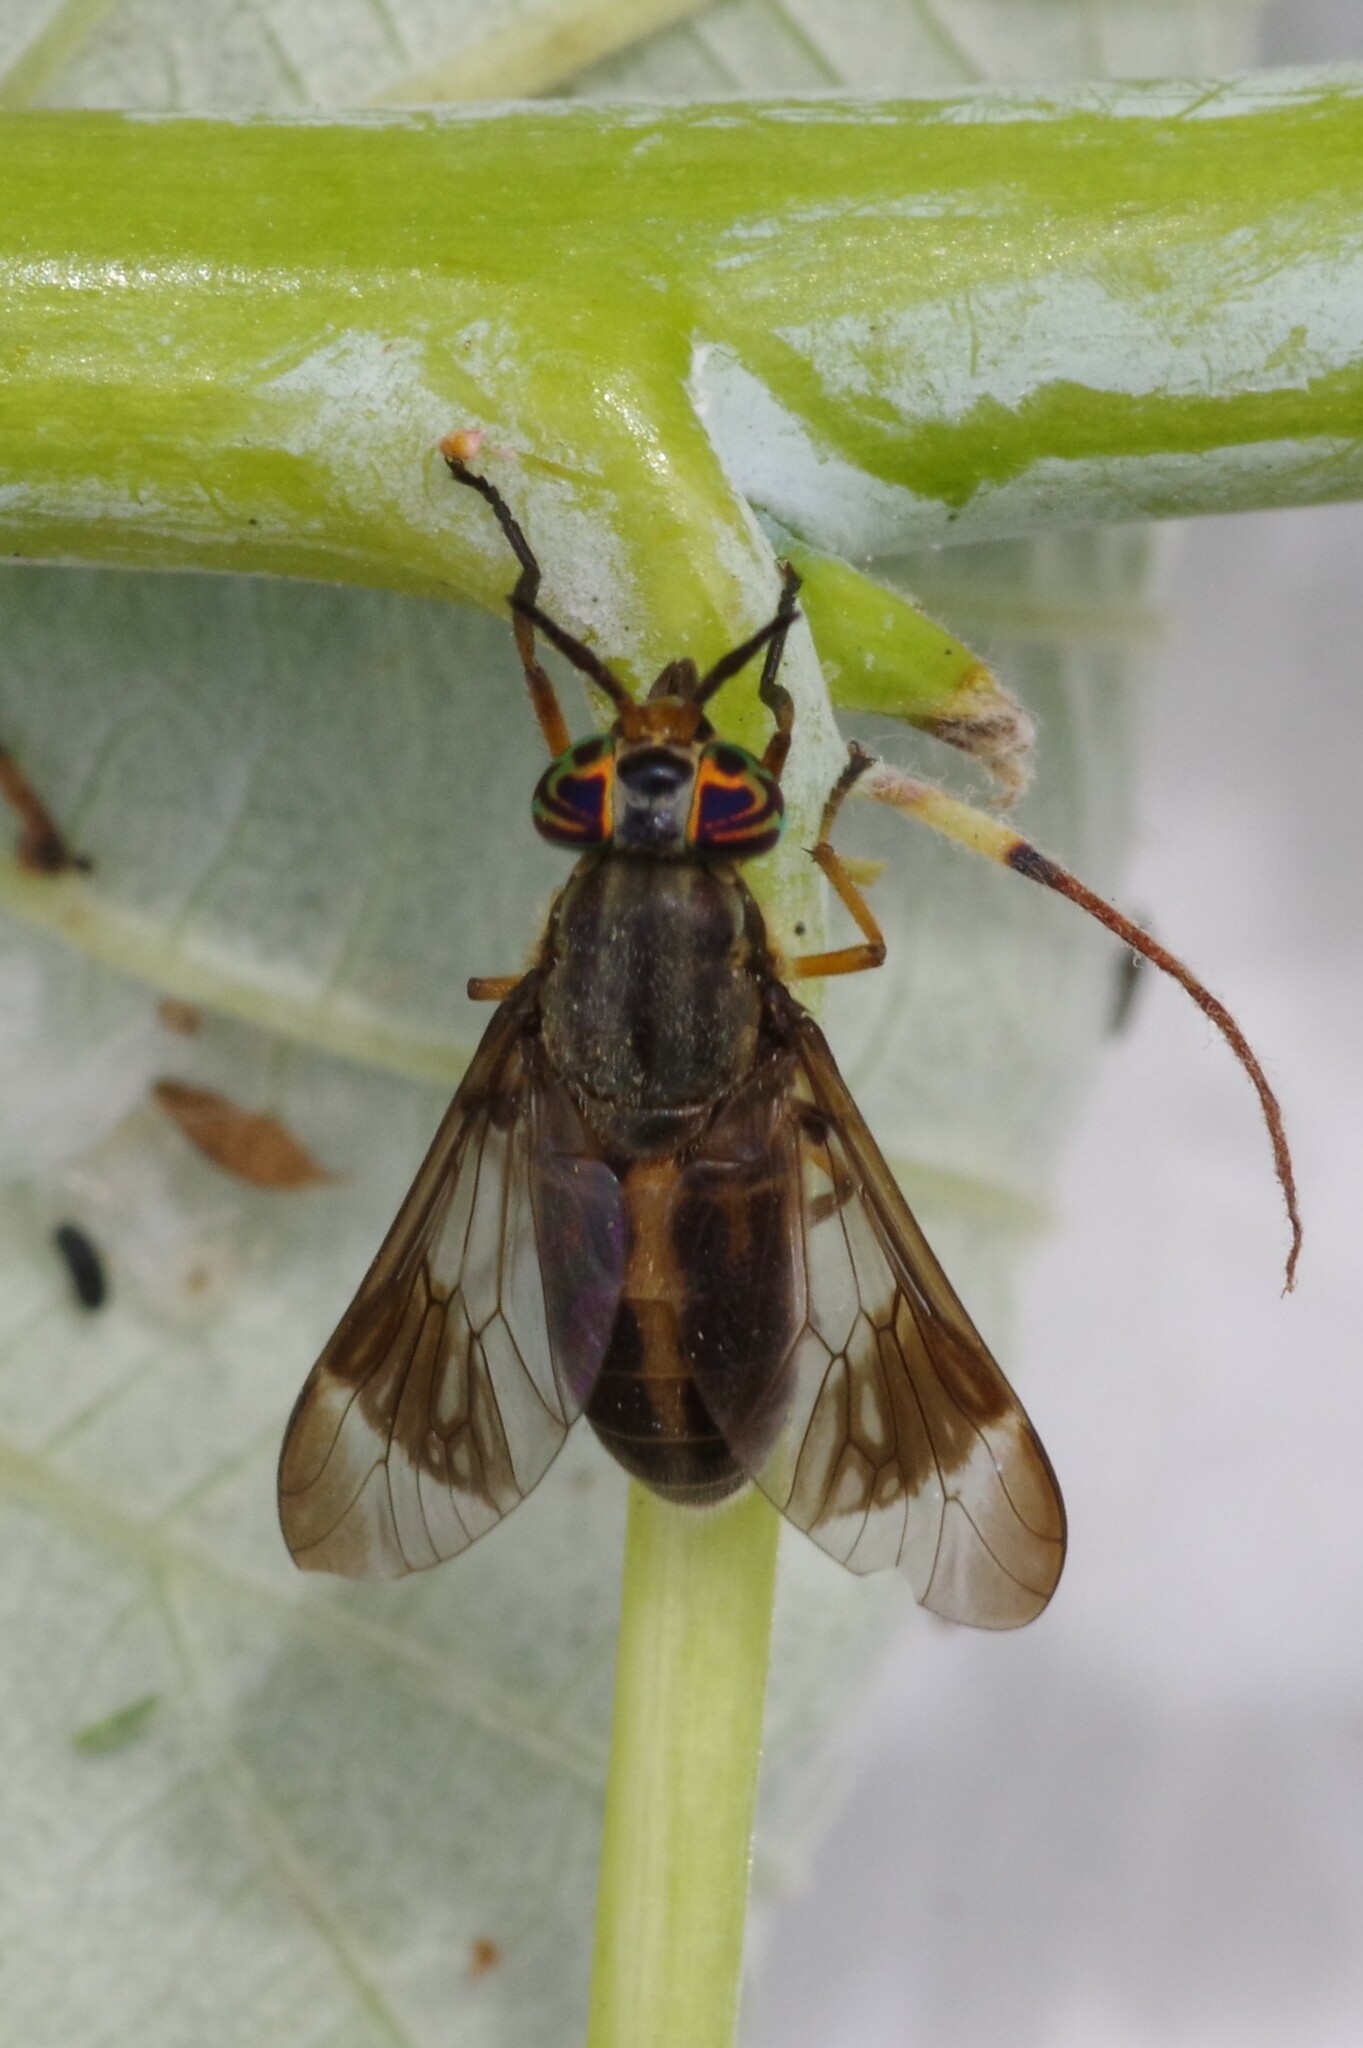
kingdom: Animalia
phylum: Arthropoda
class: Insecta
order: Diptera
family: Tabanidae
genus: Chrysops
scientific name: Chrysops univittatus
